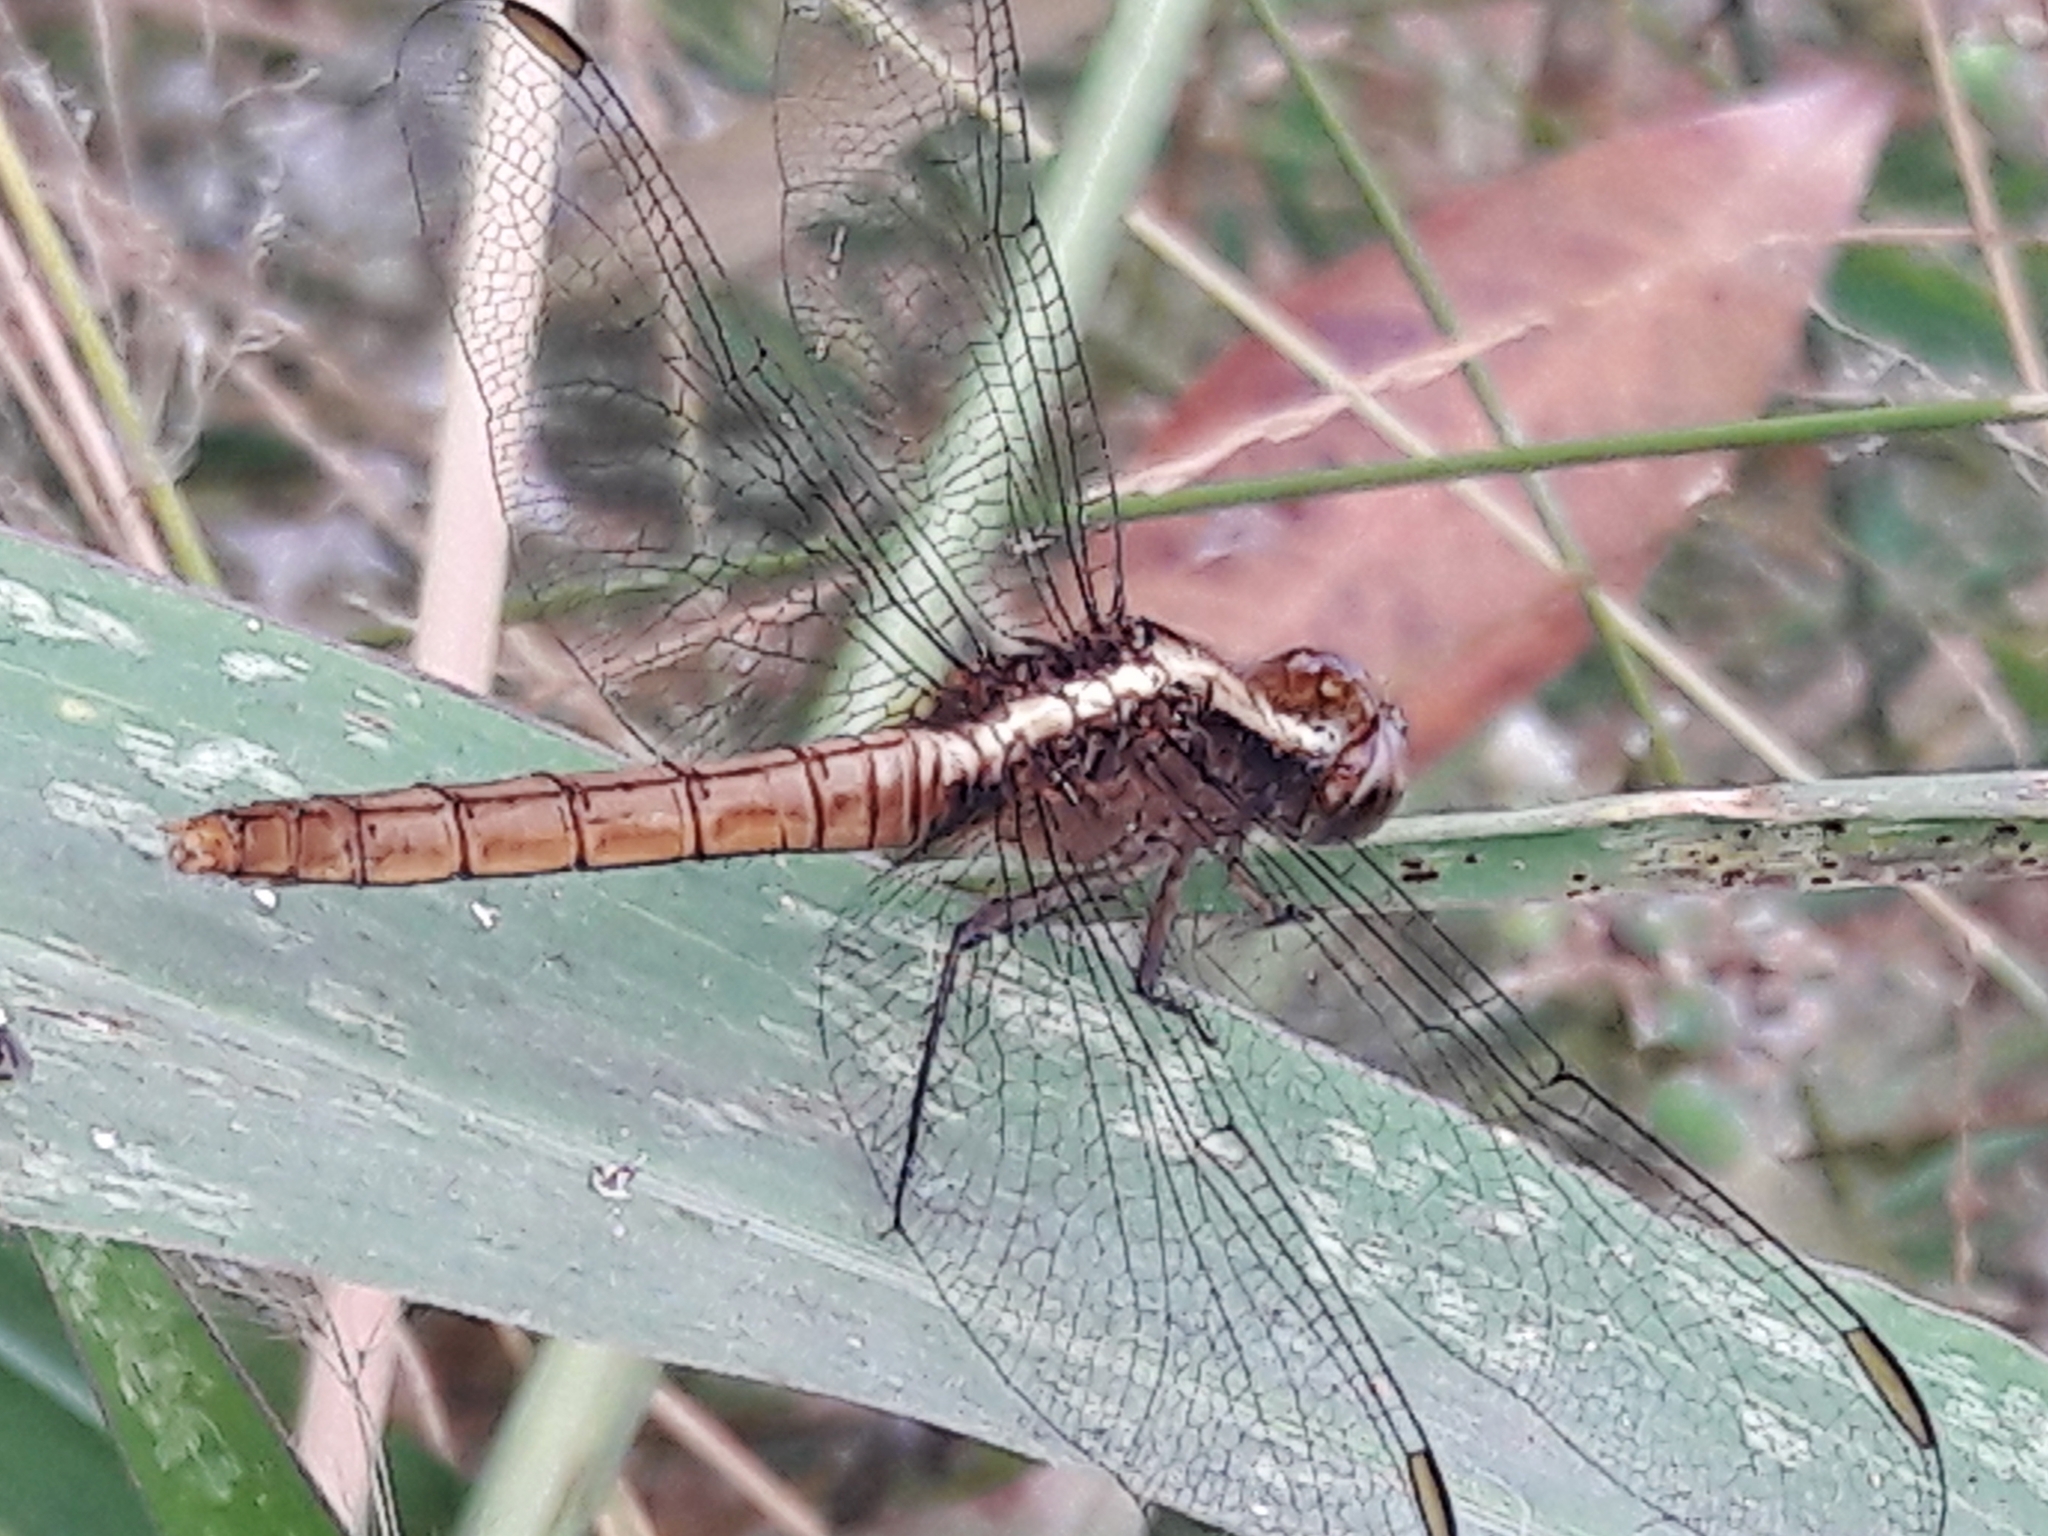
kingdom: Animalia
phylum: Arthropoda
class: Insecta
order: Odonata
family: Libellulidae
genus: Erythemis
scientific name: Erythemis peruviana
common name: Flame-tailed pondhawk
